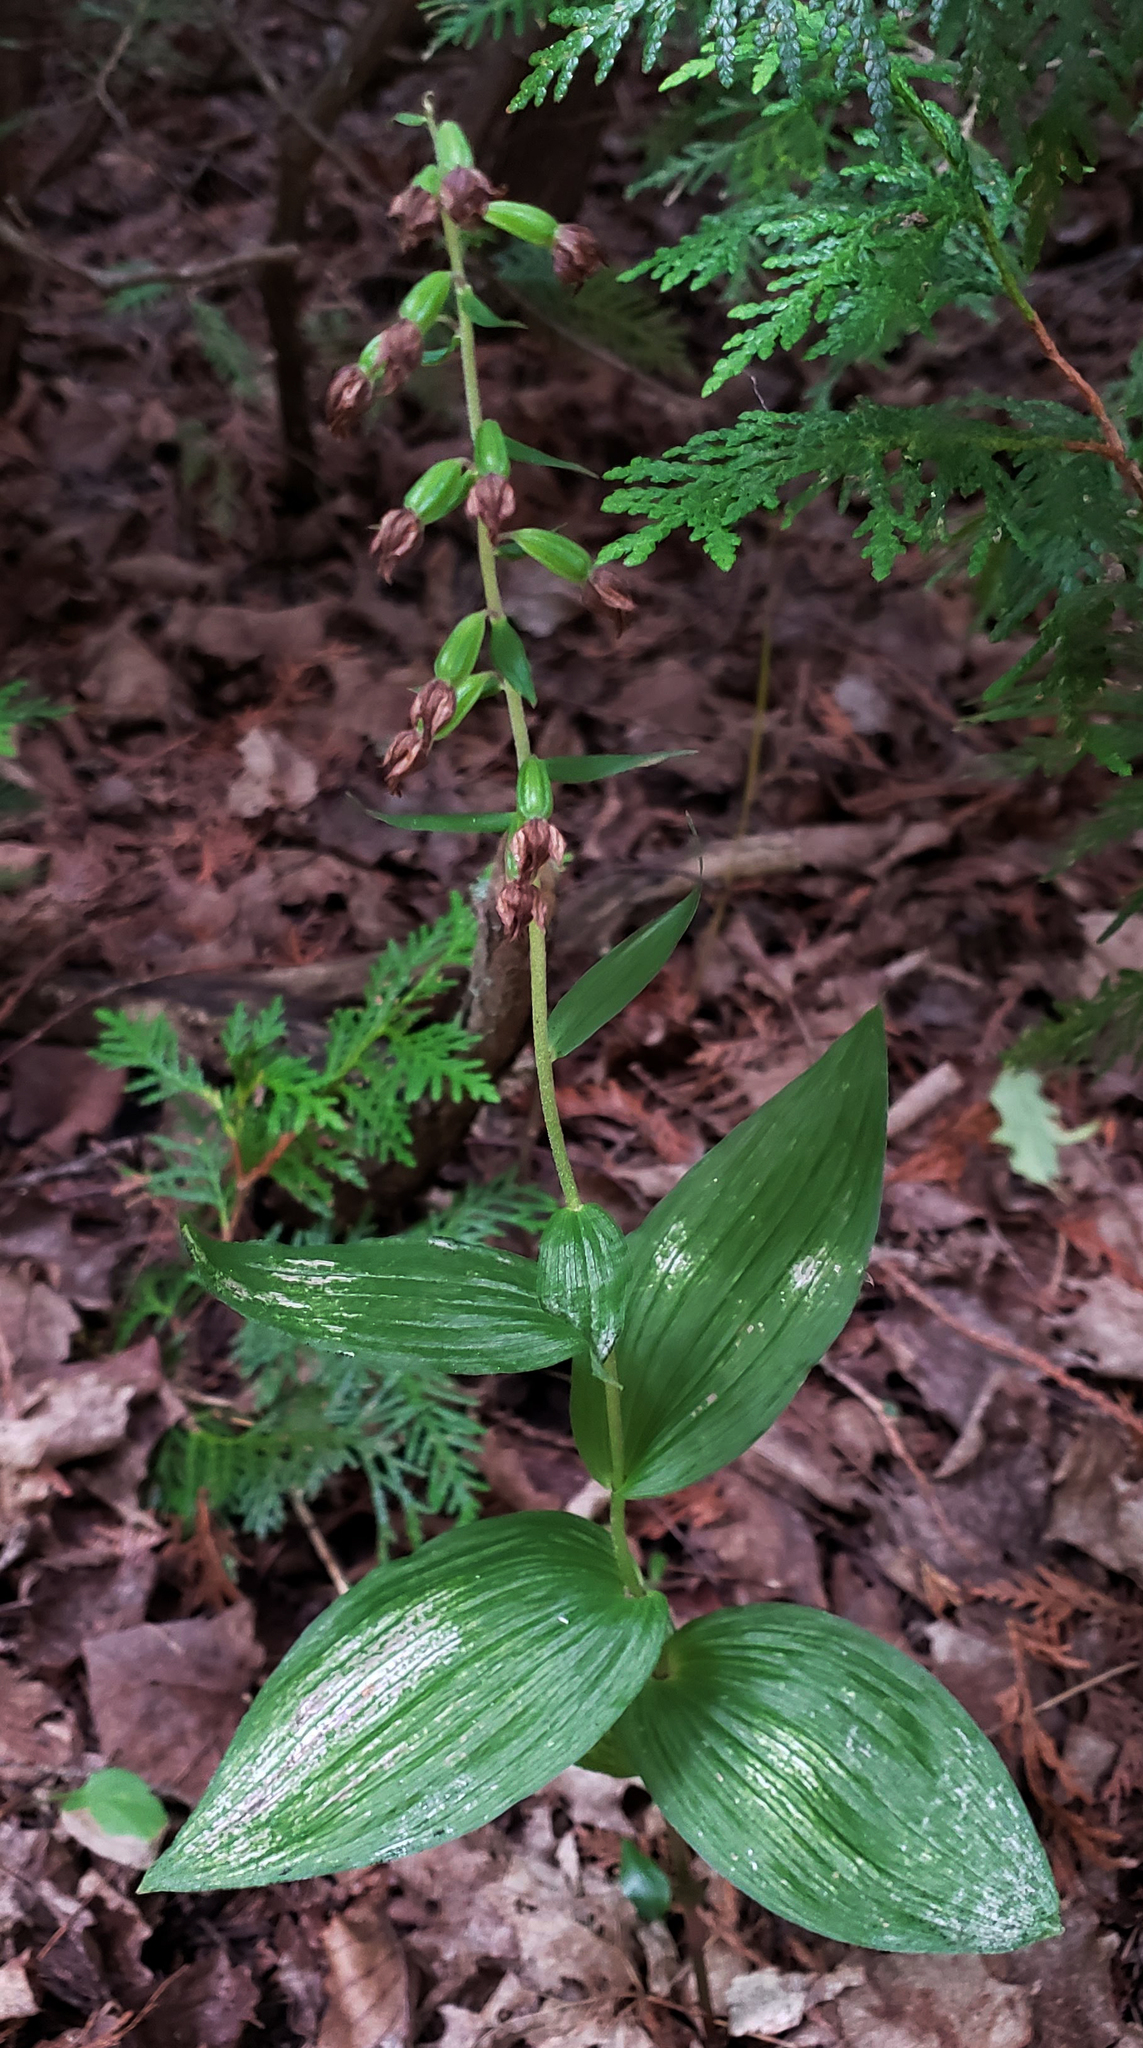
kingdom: Plantae
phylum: Tracheophyta
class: Liliopsida
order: Asparagales
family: Orchidaceae
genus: Epipactis
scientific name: Epipactis helleborine
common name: Broad-leaved helleborine
